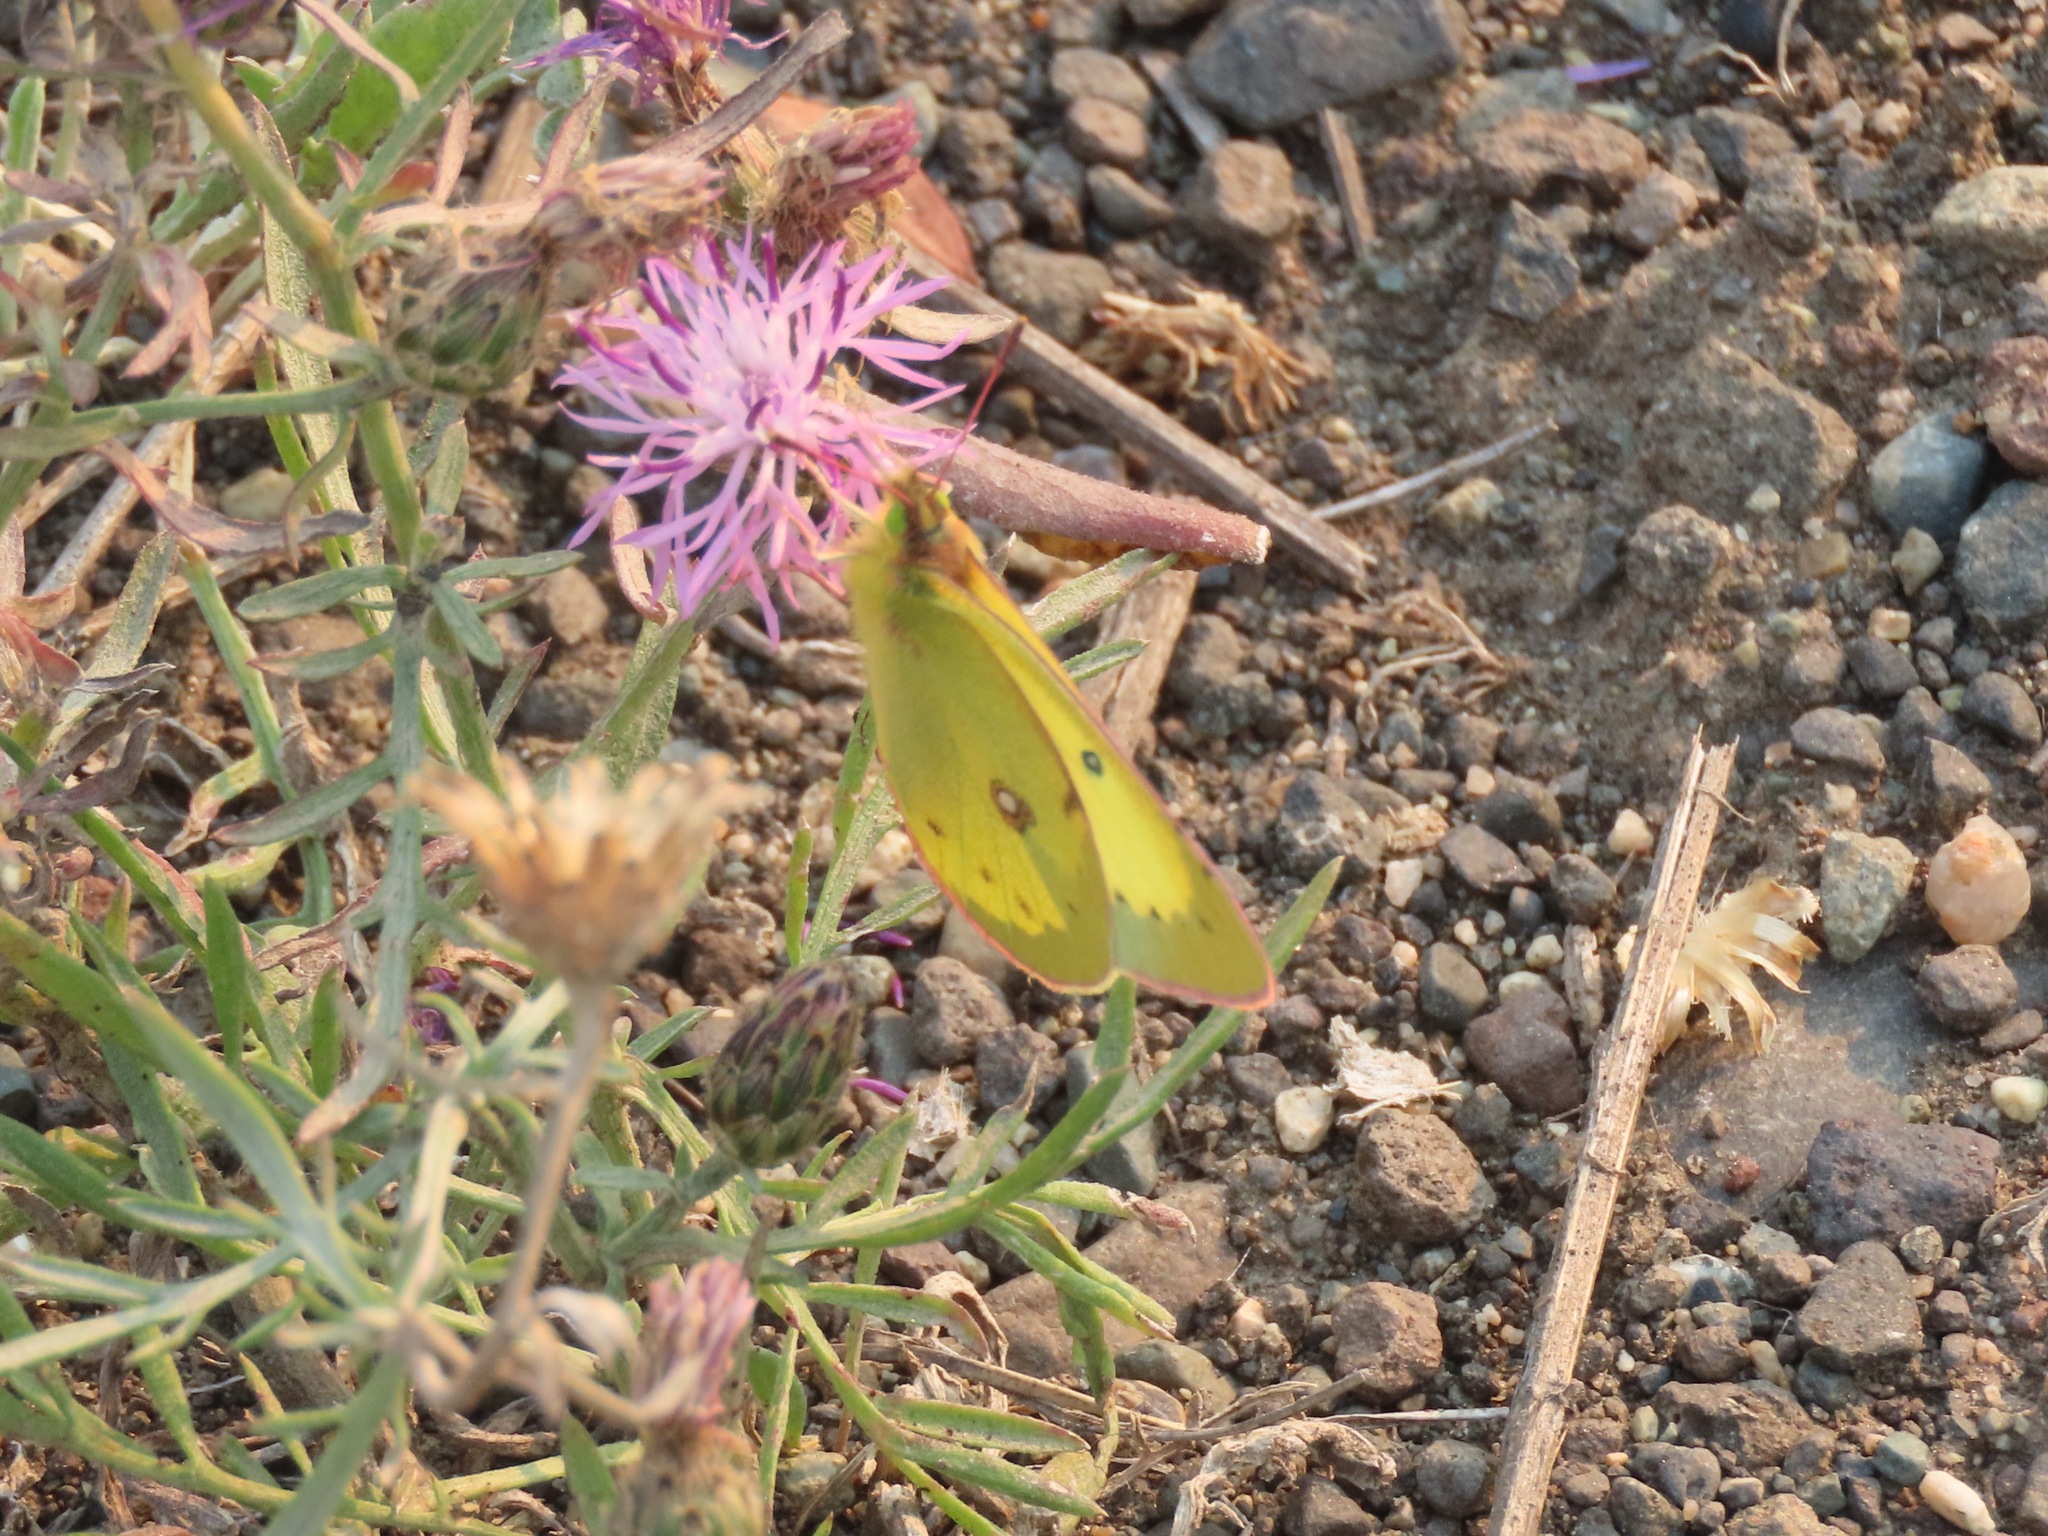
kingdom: Animalia
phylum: Arthropoda
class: Insecta
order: Lepidoptera
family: Pieridae
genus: Colias
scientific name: Colias philodice
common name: Clouded sulphur
